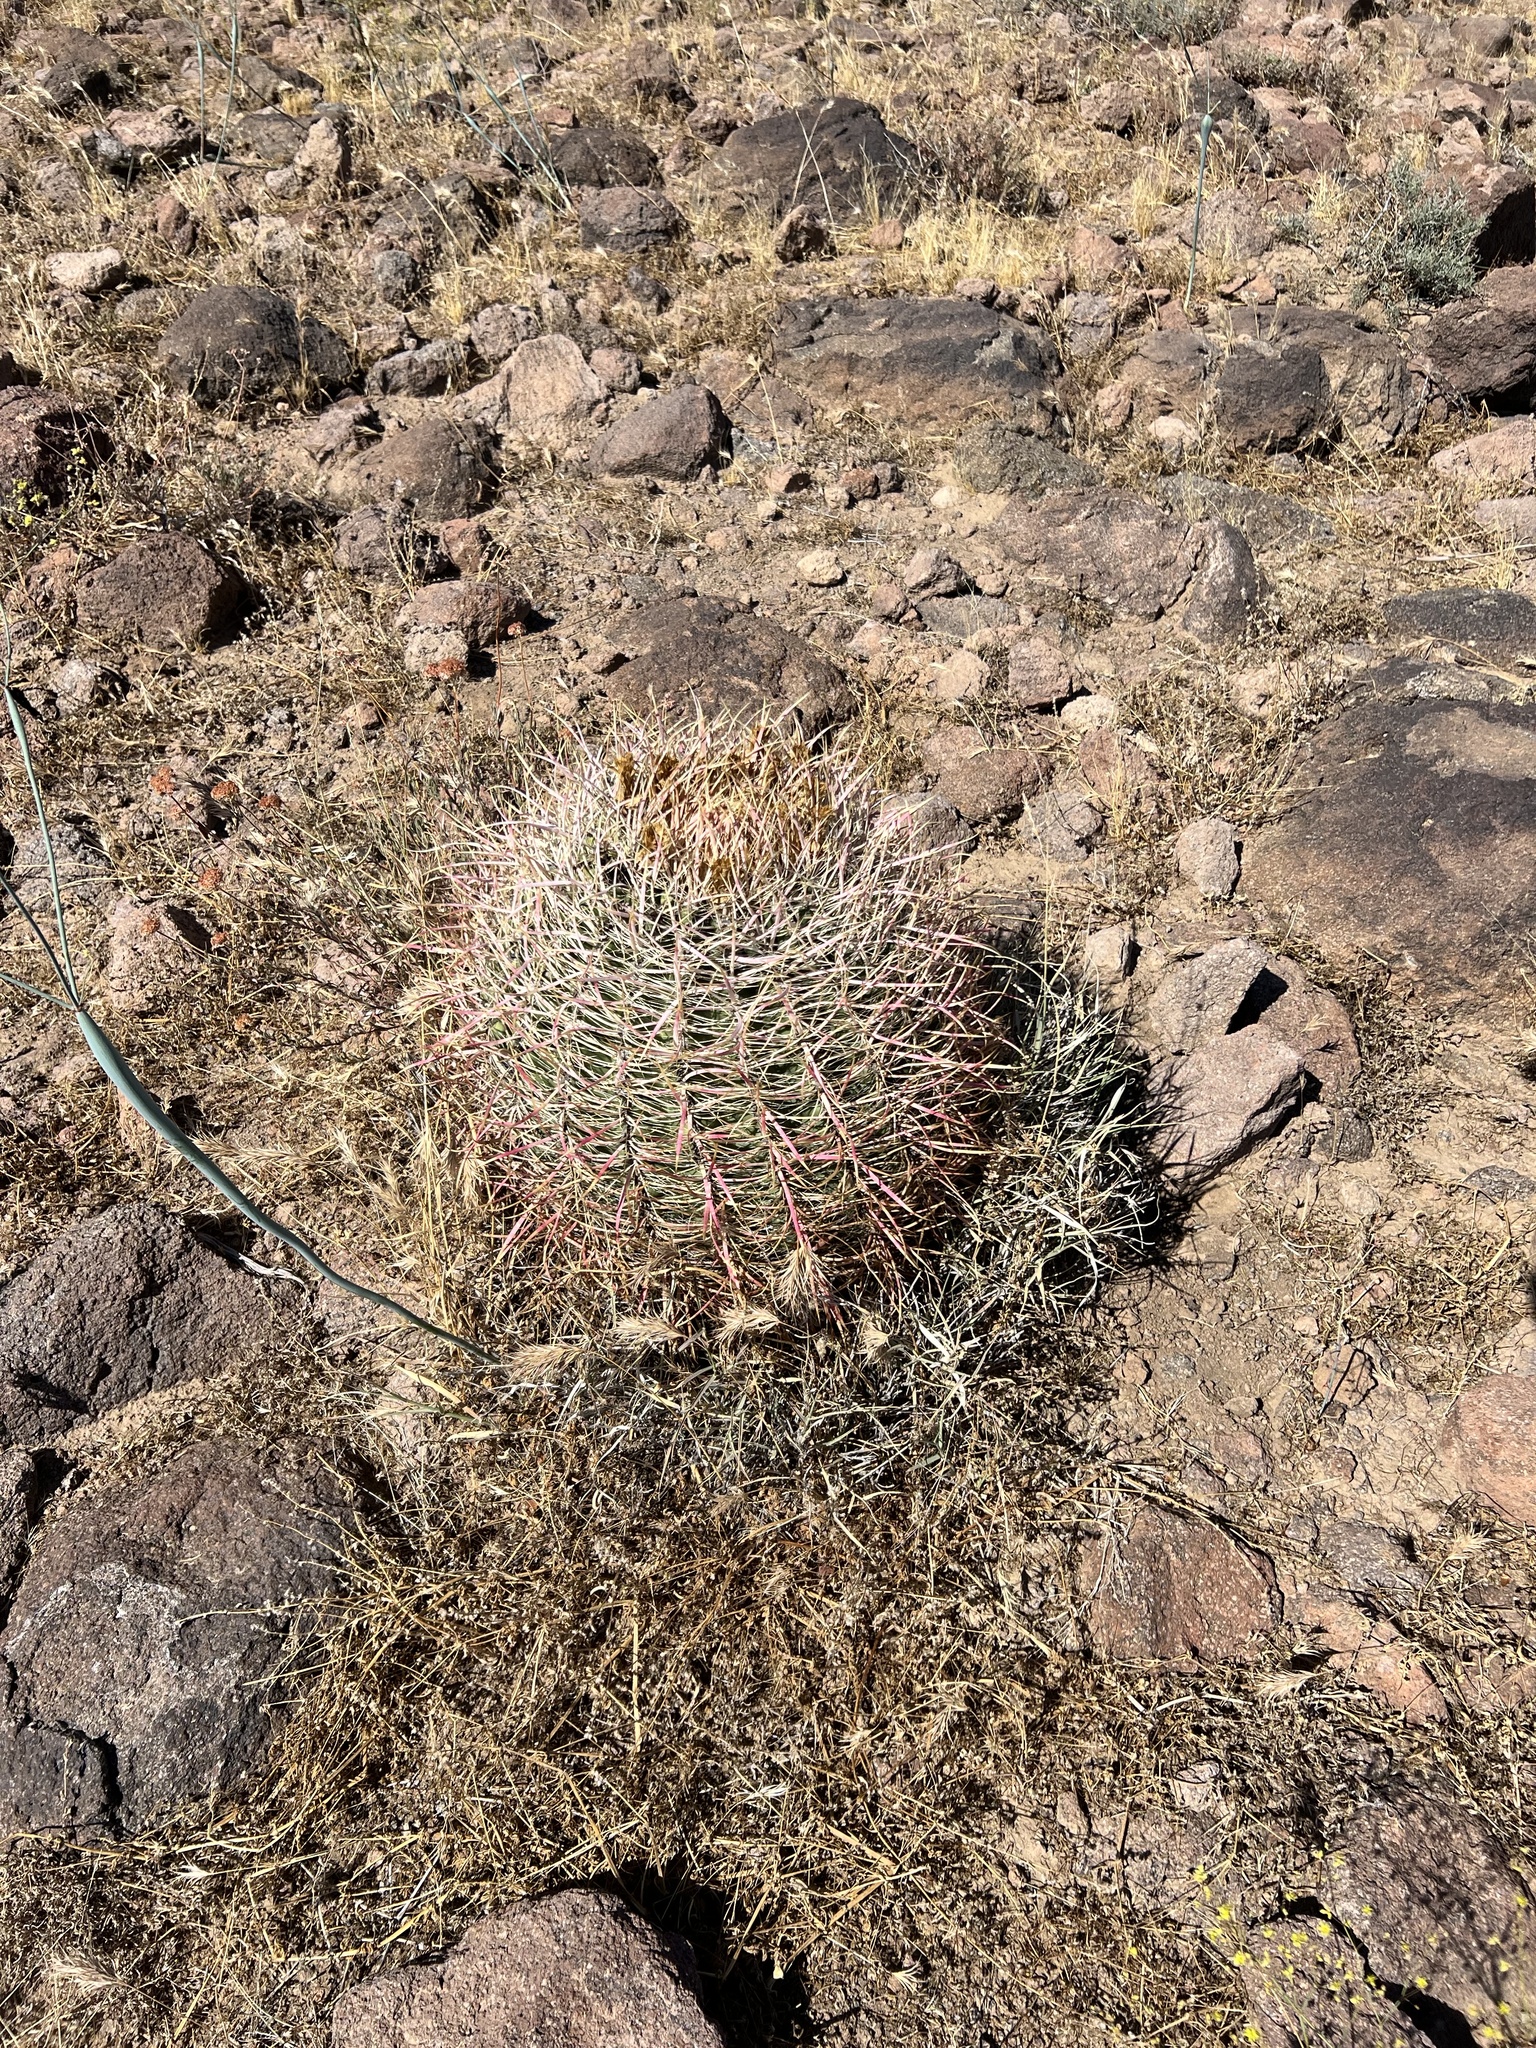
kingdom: Plantae
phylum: Tracheophyta
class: Magnoliopsida
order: Caryophyllales
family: Cactaceae
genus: Ferocactus
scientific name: Ferocactus cylindraceus
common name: California barrel cactus
